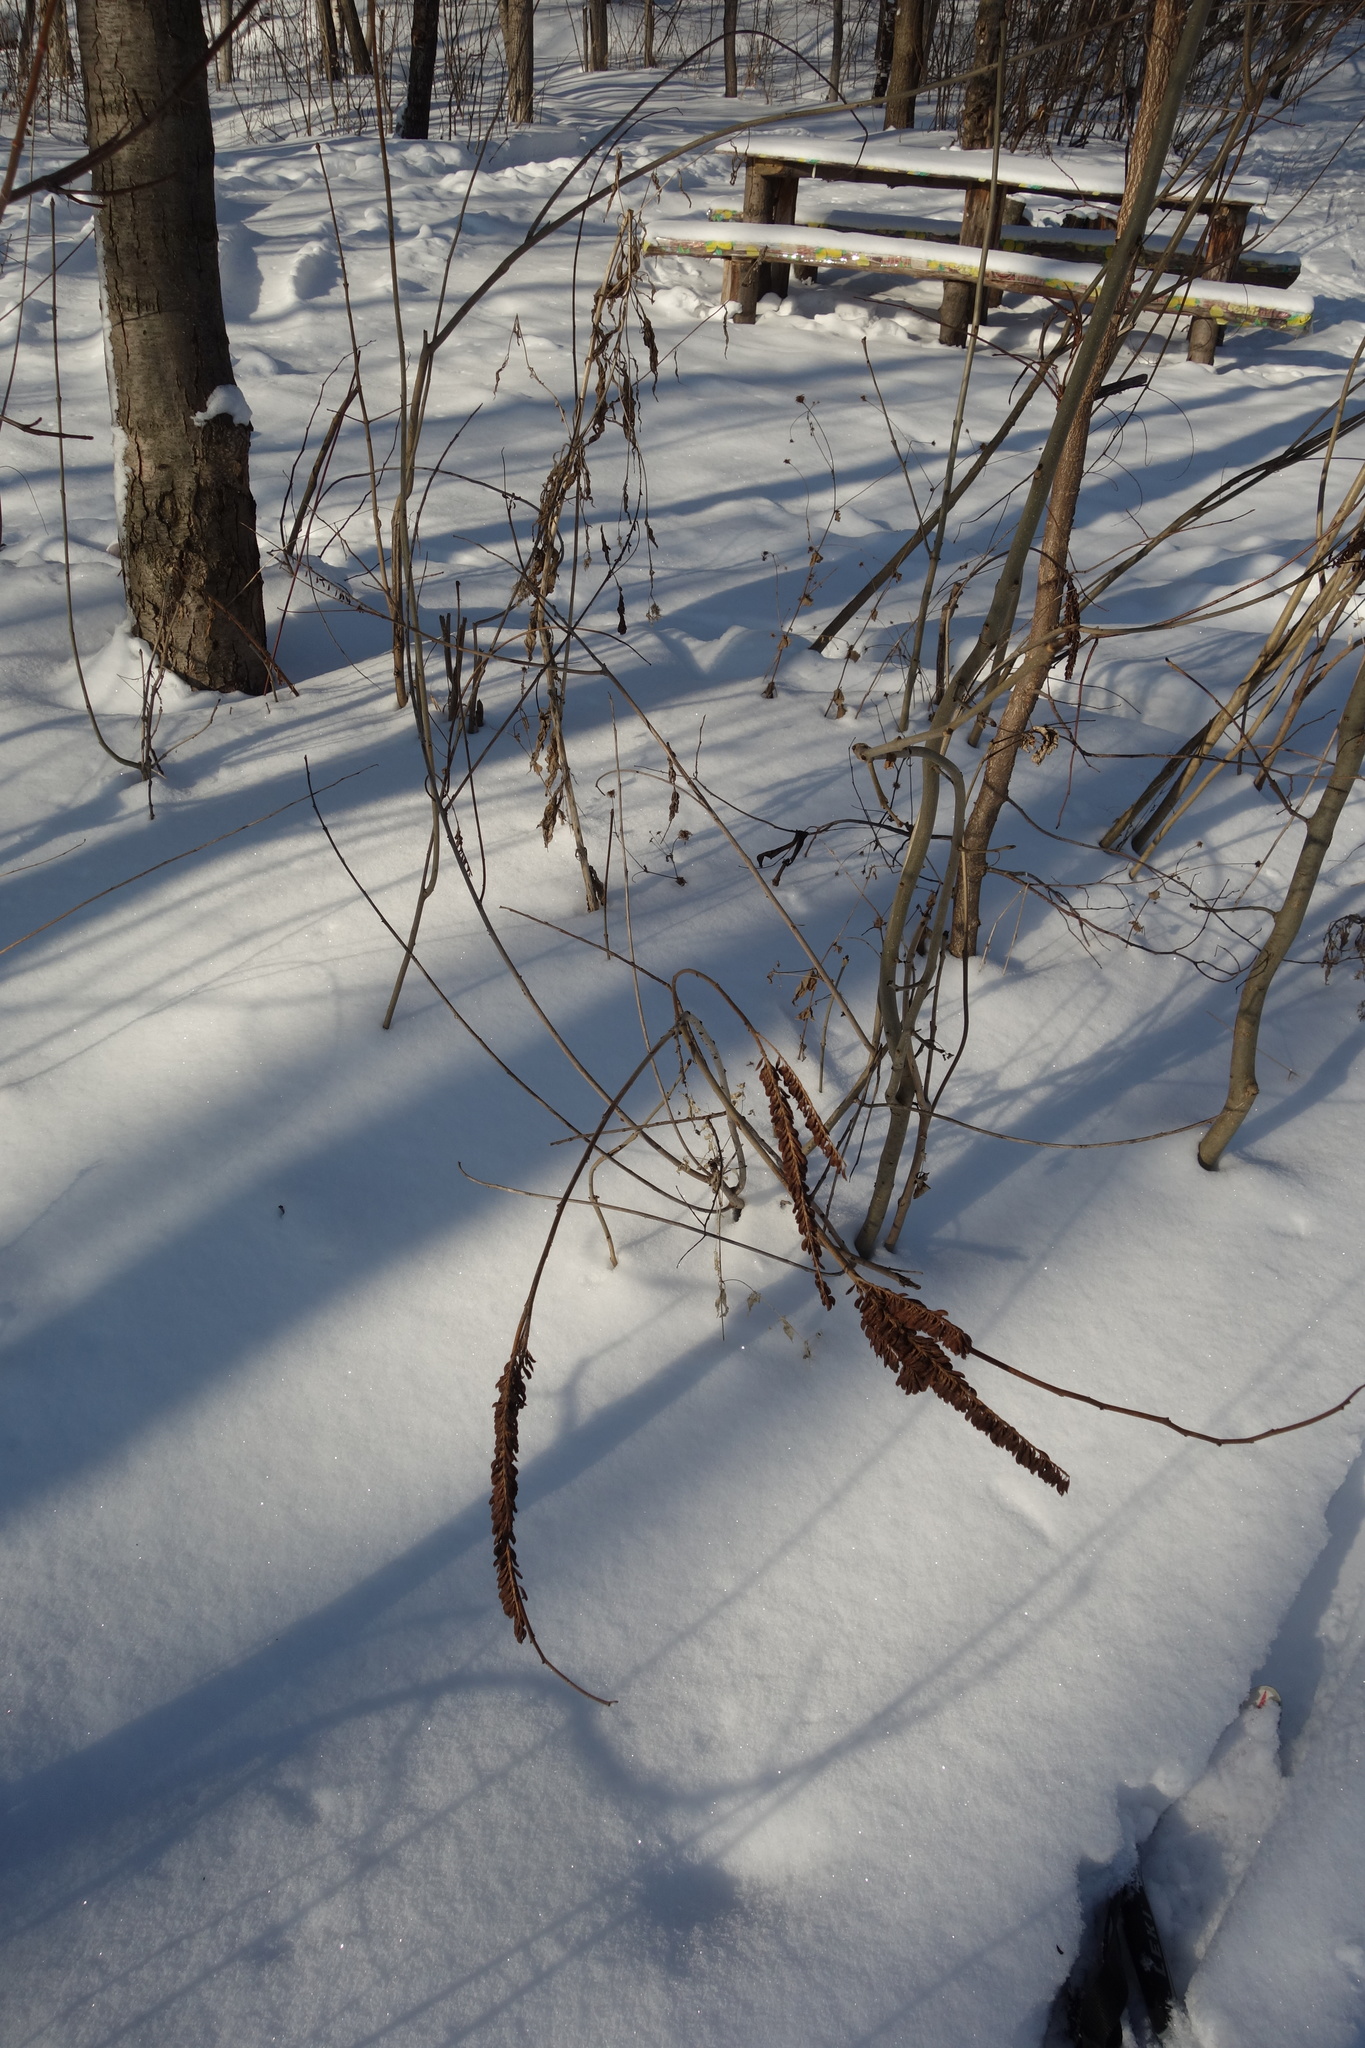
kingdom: Plantae
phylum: Tracheophyta
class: Magnoliopsida
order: Fabales
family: Fabaceae
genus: Amorpha
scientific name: Amorpha fruticosa
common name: False indigo
